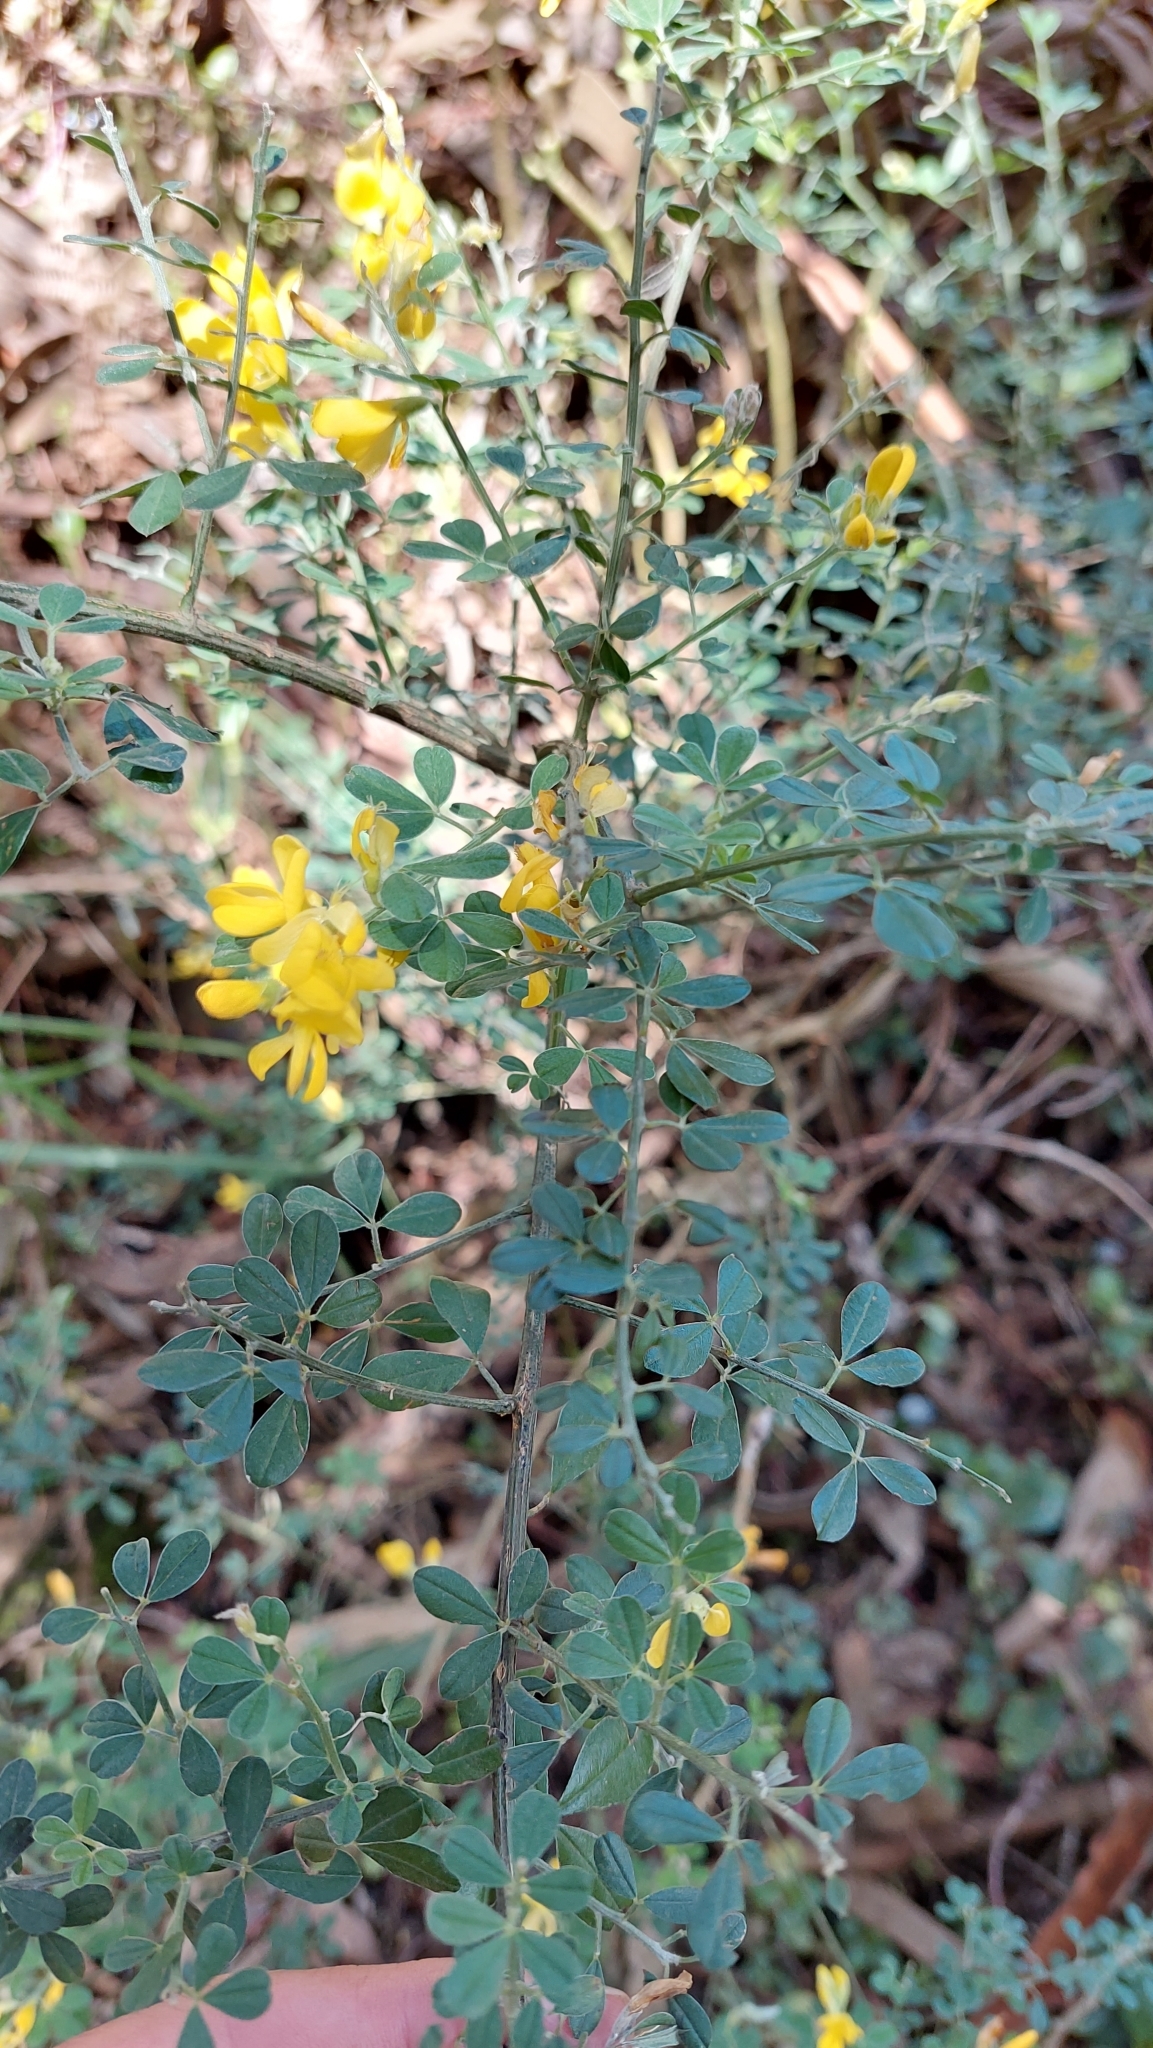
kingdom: Plantae
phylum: Tracheophyta
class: Magnoliopsida
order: Fabales
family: Fabaceae
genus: Genista
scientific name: Genista monspessulana
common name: Montpellier broom
